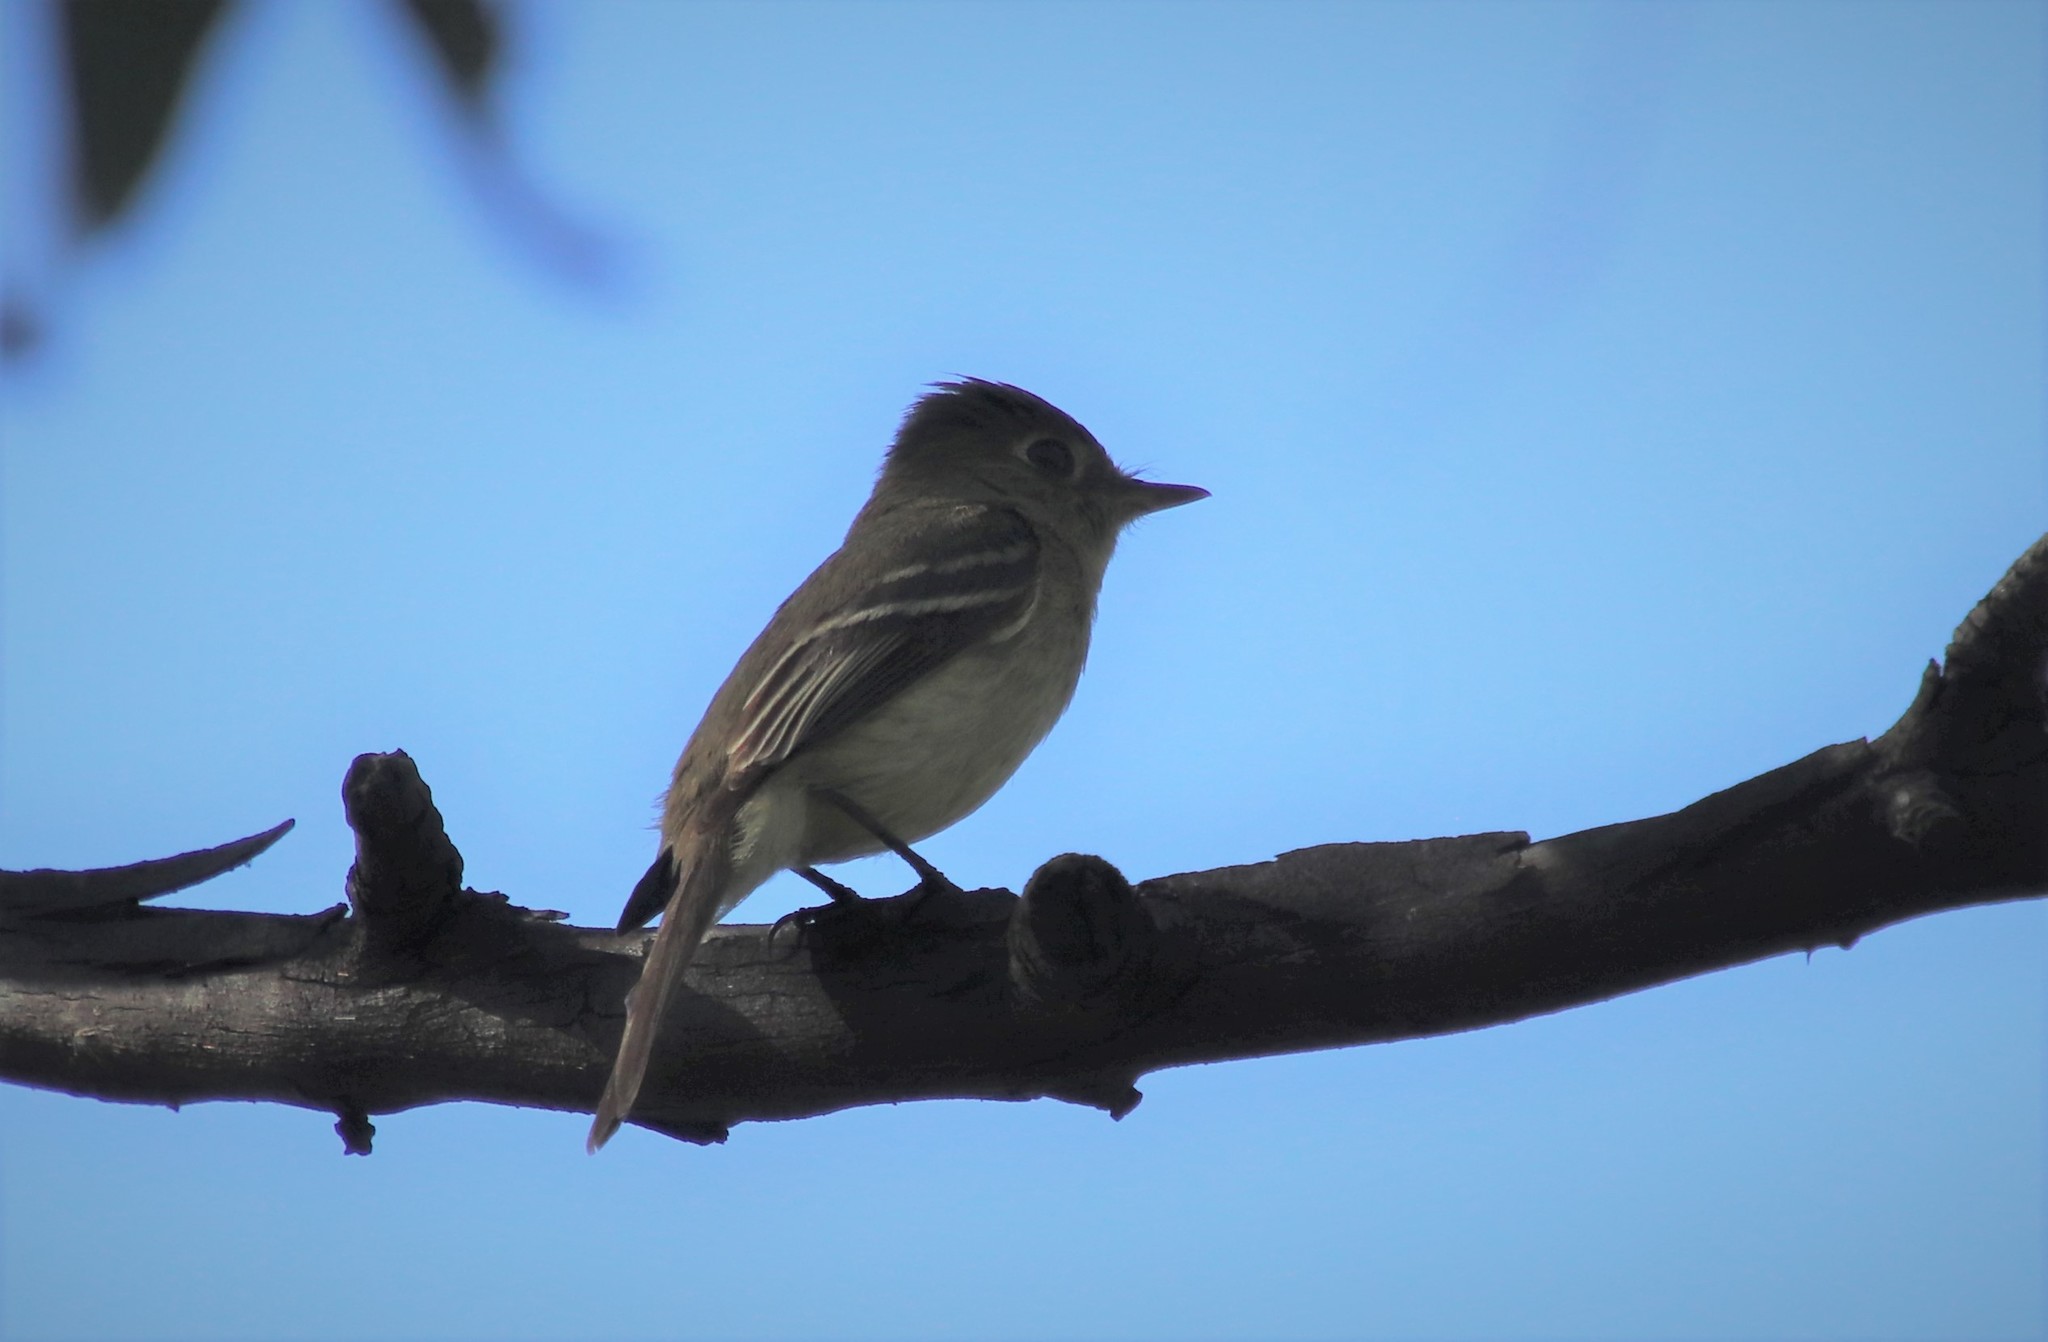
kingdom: Animalia
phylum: Chordata
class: Aves
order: Passeriformes
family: Tyrannidae
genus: Empidonax
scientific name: Empidonax difficilis
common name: Pacific-slope flycatcher
